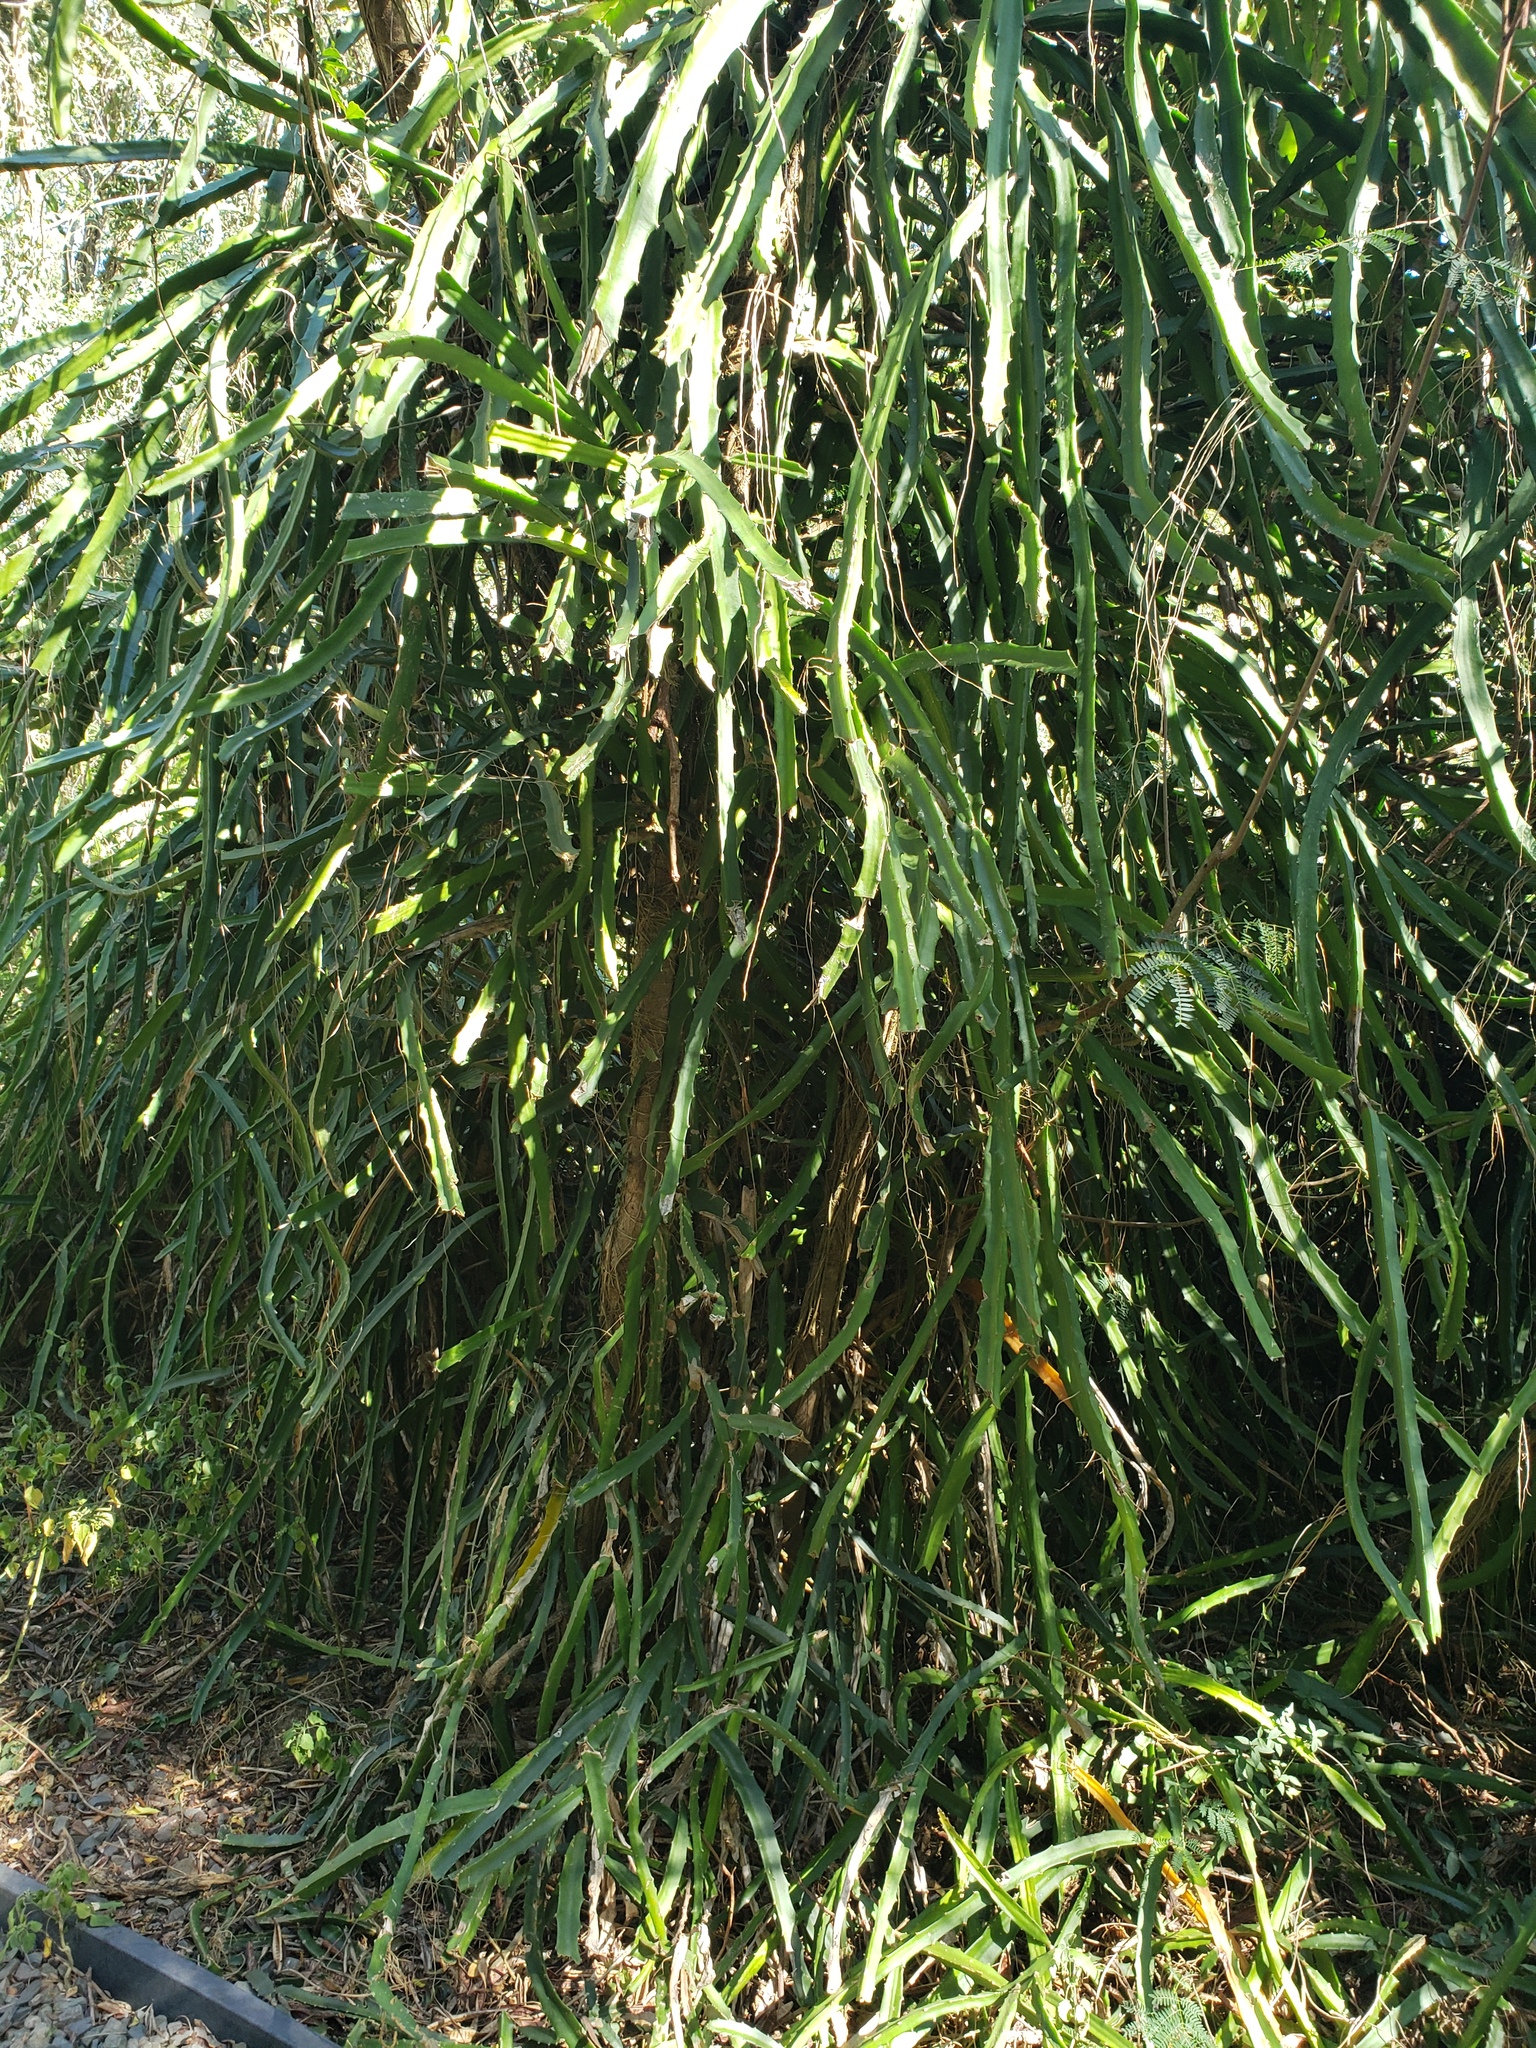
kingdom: Plantae
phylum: Tracheophyta
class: Magnoliopsida
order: Caryophyllales
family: Cactaceae
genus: Selenicereus
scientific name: Selenicereus undatus
